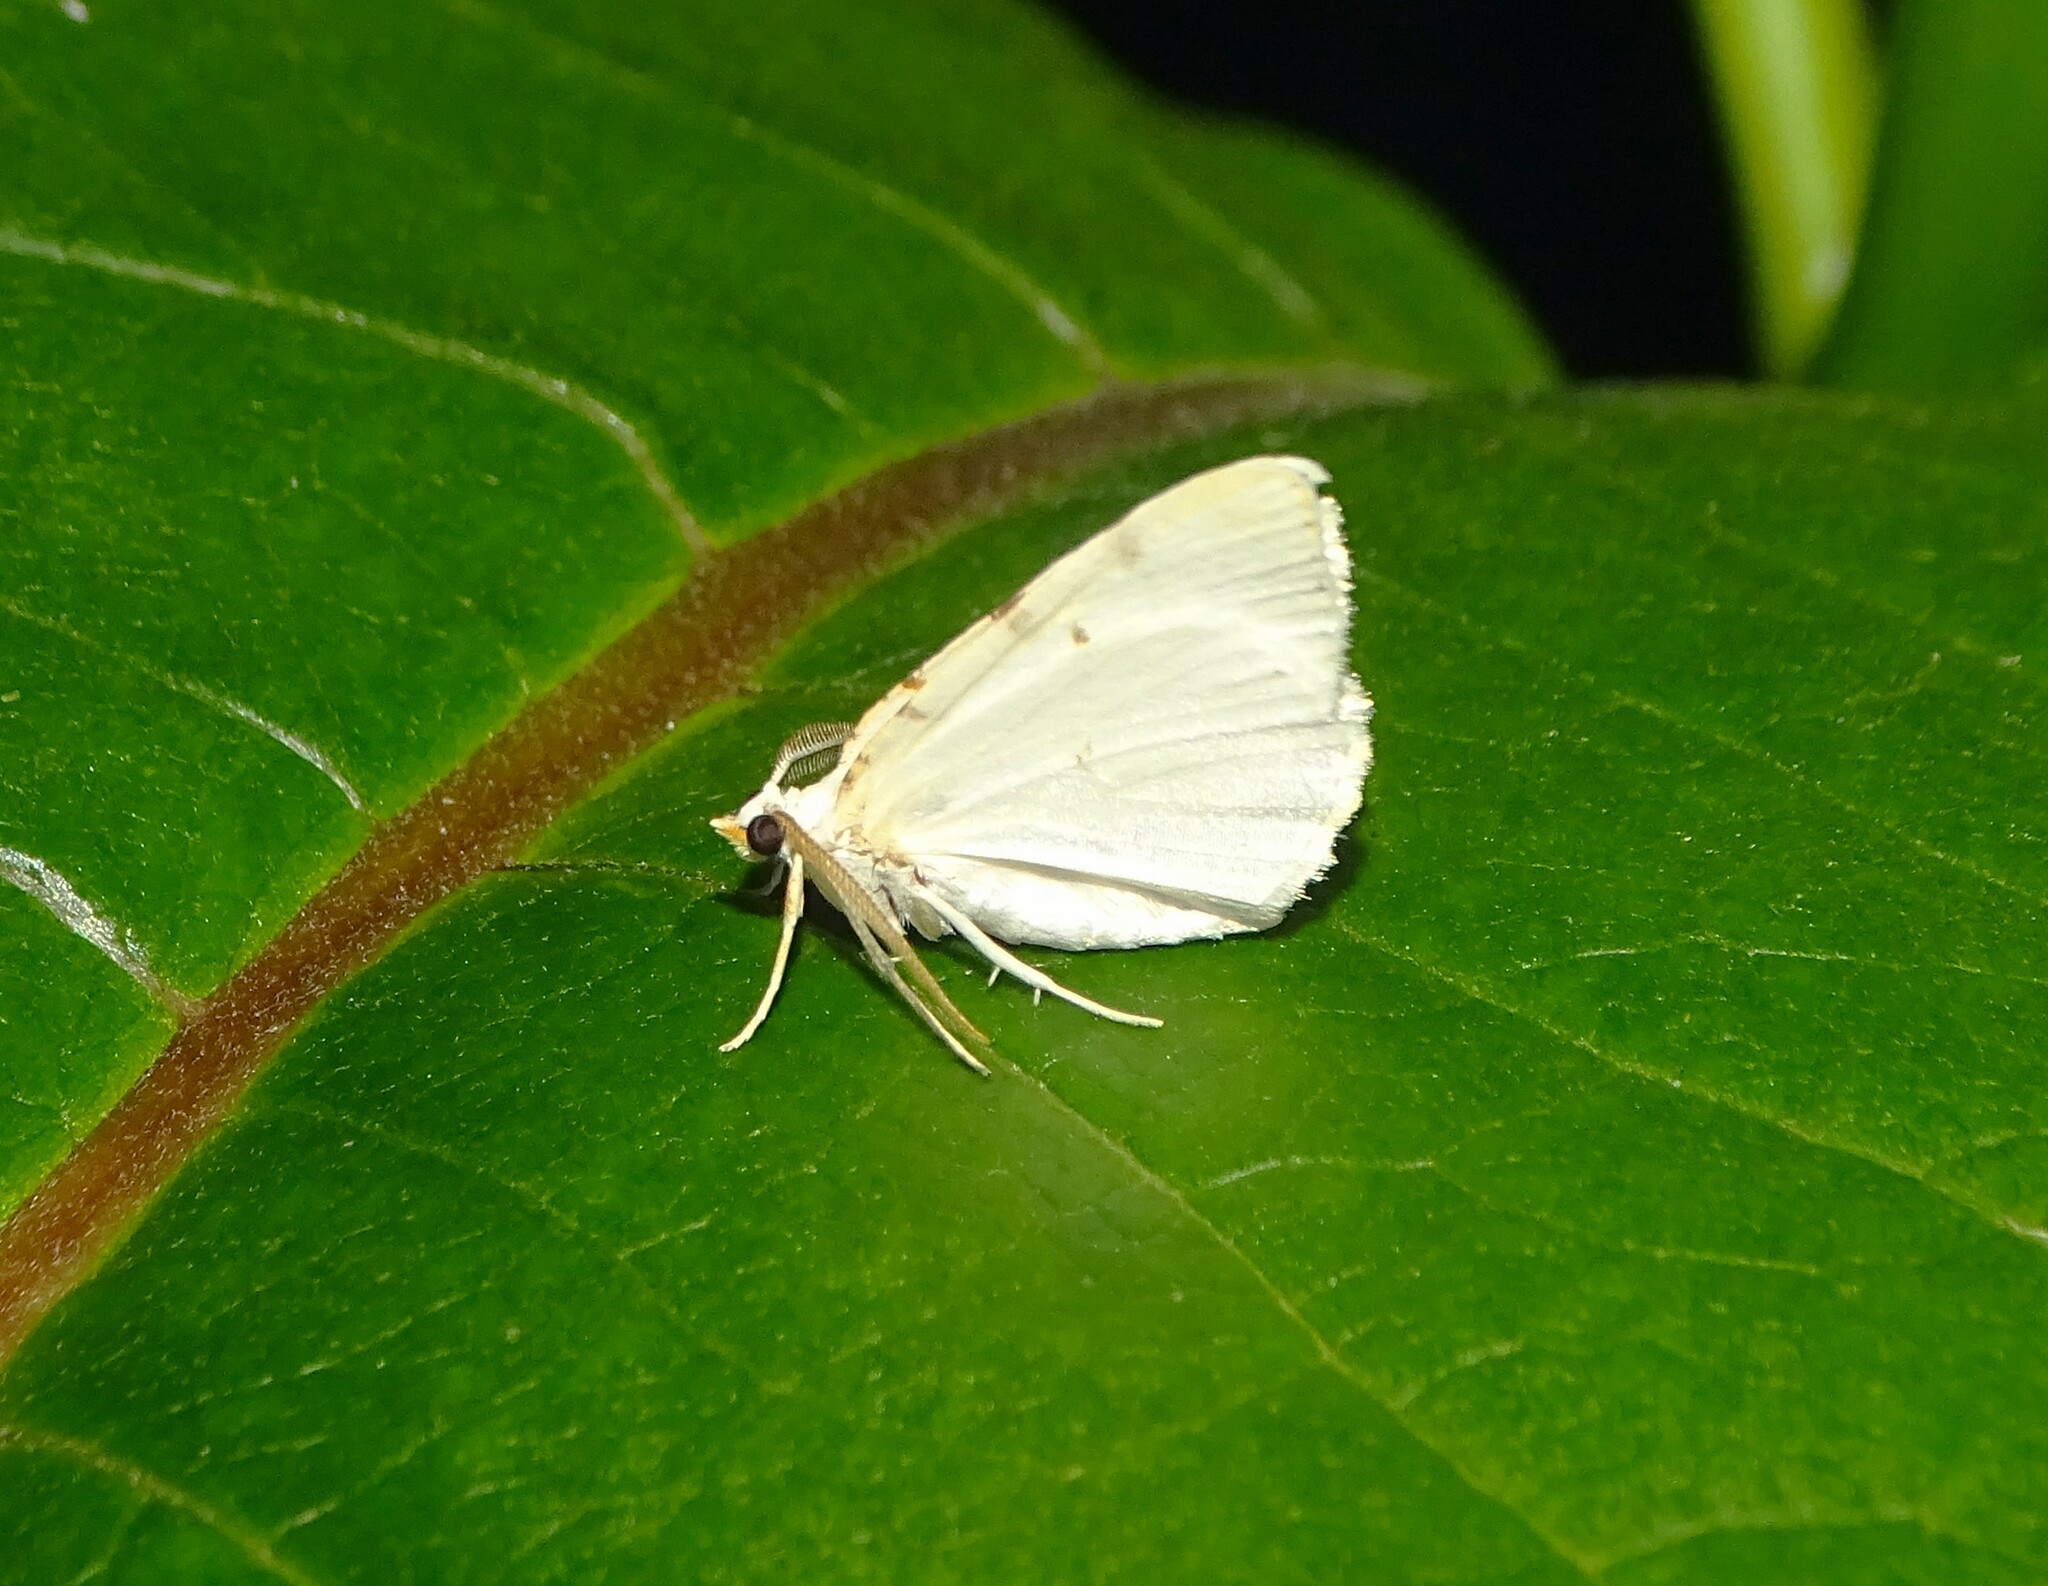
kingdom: Animalia
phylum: Arthropoda
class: Insecta
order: Lepidoptera
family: Geometridae
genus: Macaria
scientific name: Macaria pustularia
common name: Lesser maple spanworm moth
